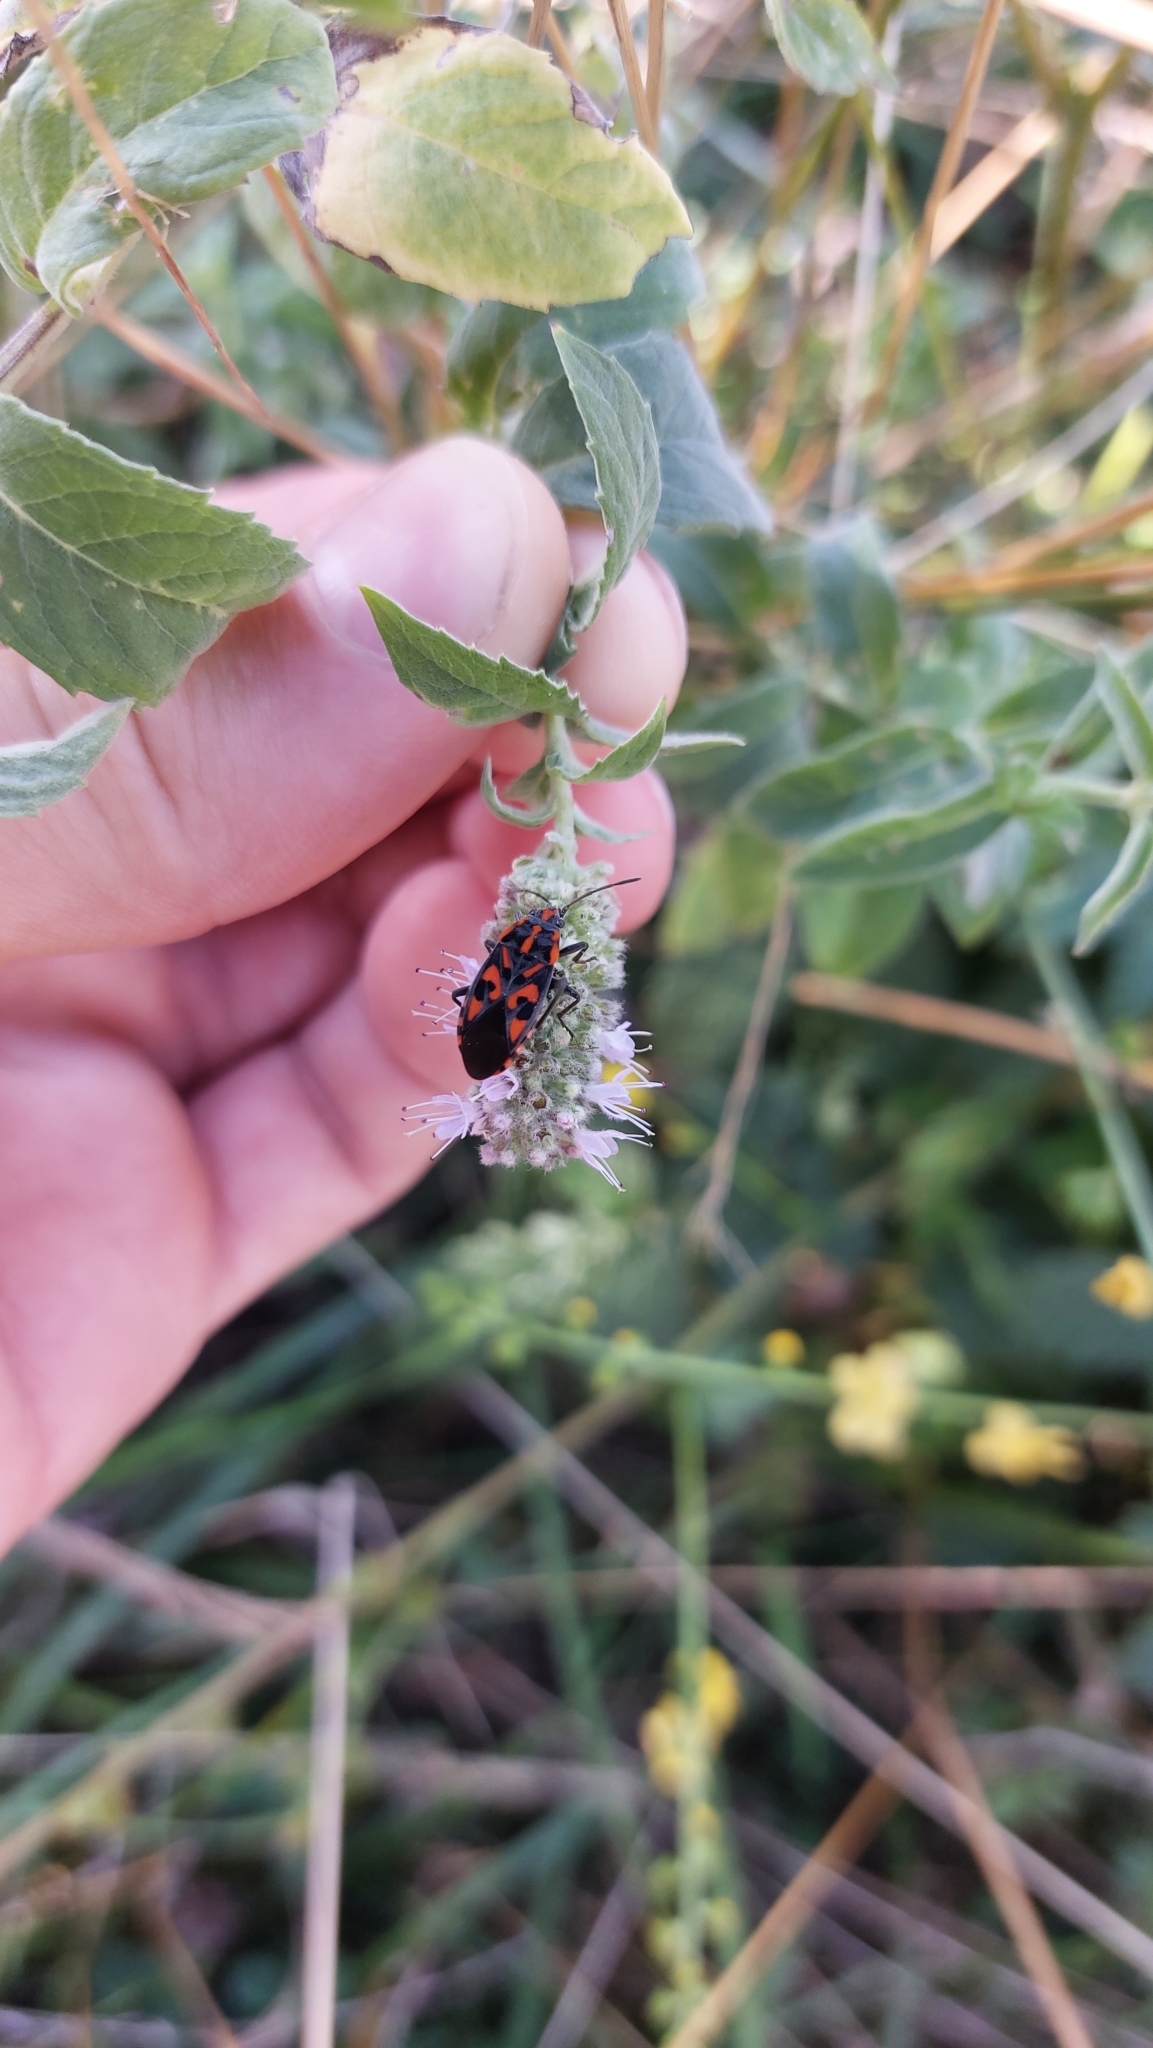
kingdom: Animalia
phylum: Arthropoda
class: Insecta
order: Hemiptera
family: Lygaeidae
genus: Spilostethus
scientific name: Spilostethus saxatilis
